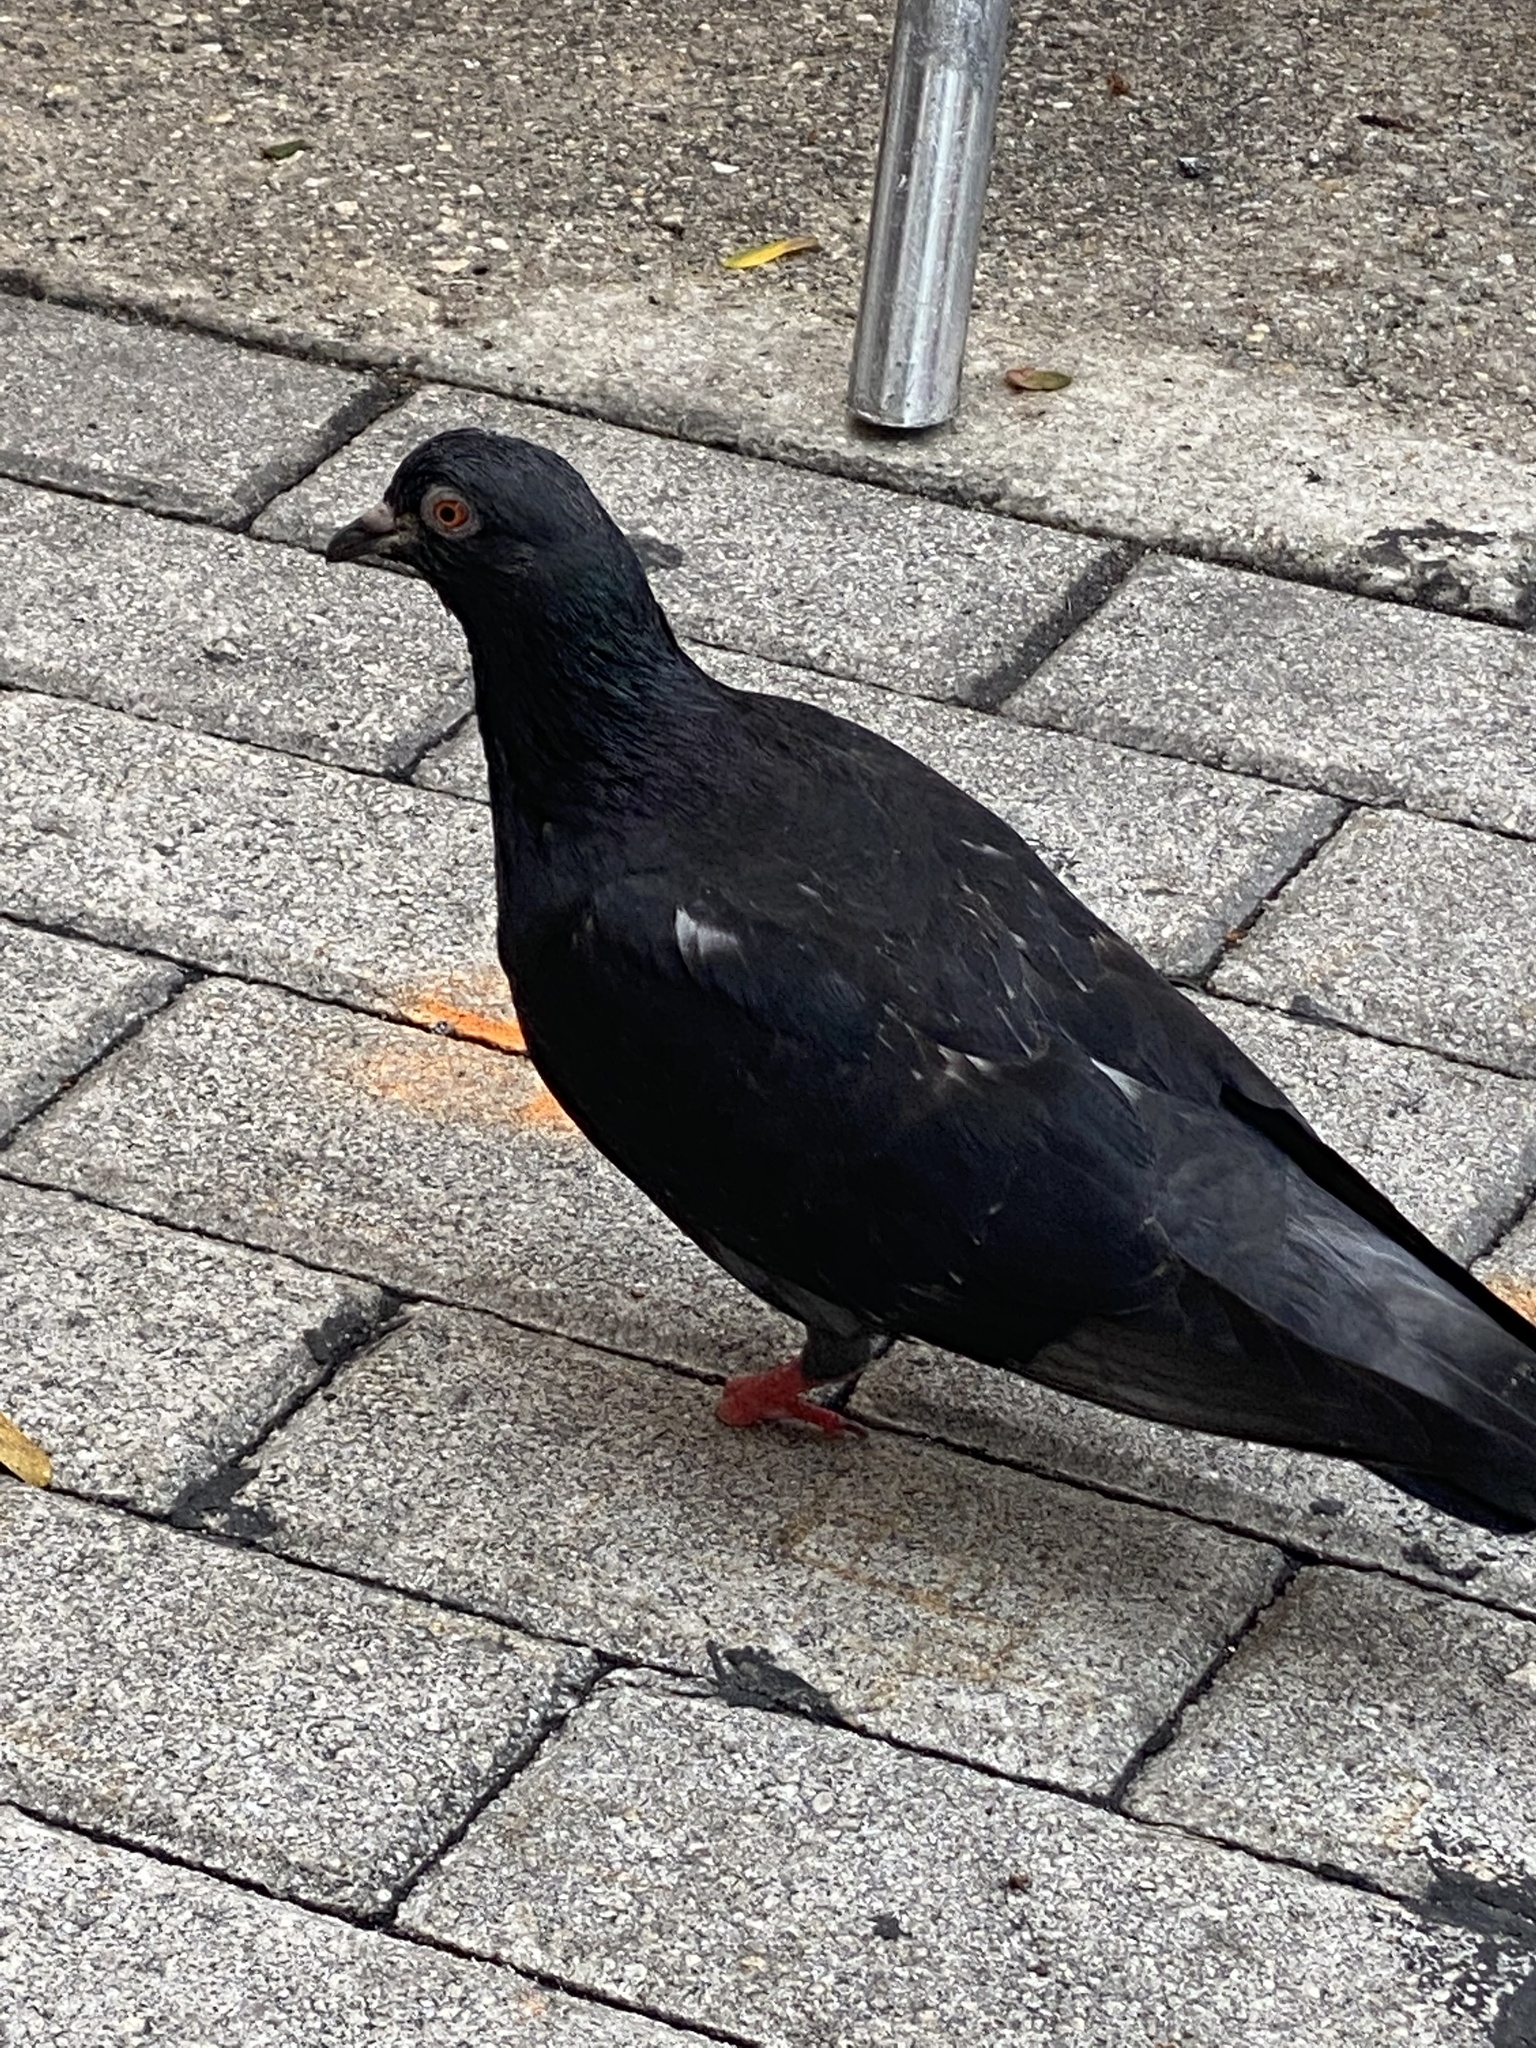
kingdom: Animalia
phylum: Chordata
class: Aves
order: Columbiformes
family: Columbidae
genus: Columba
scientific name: Columba livia
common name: Rock pigeon
